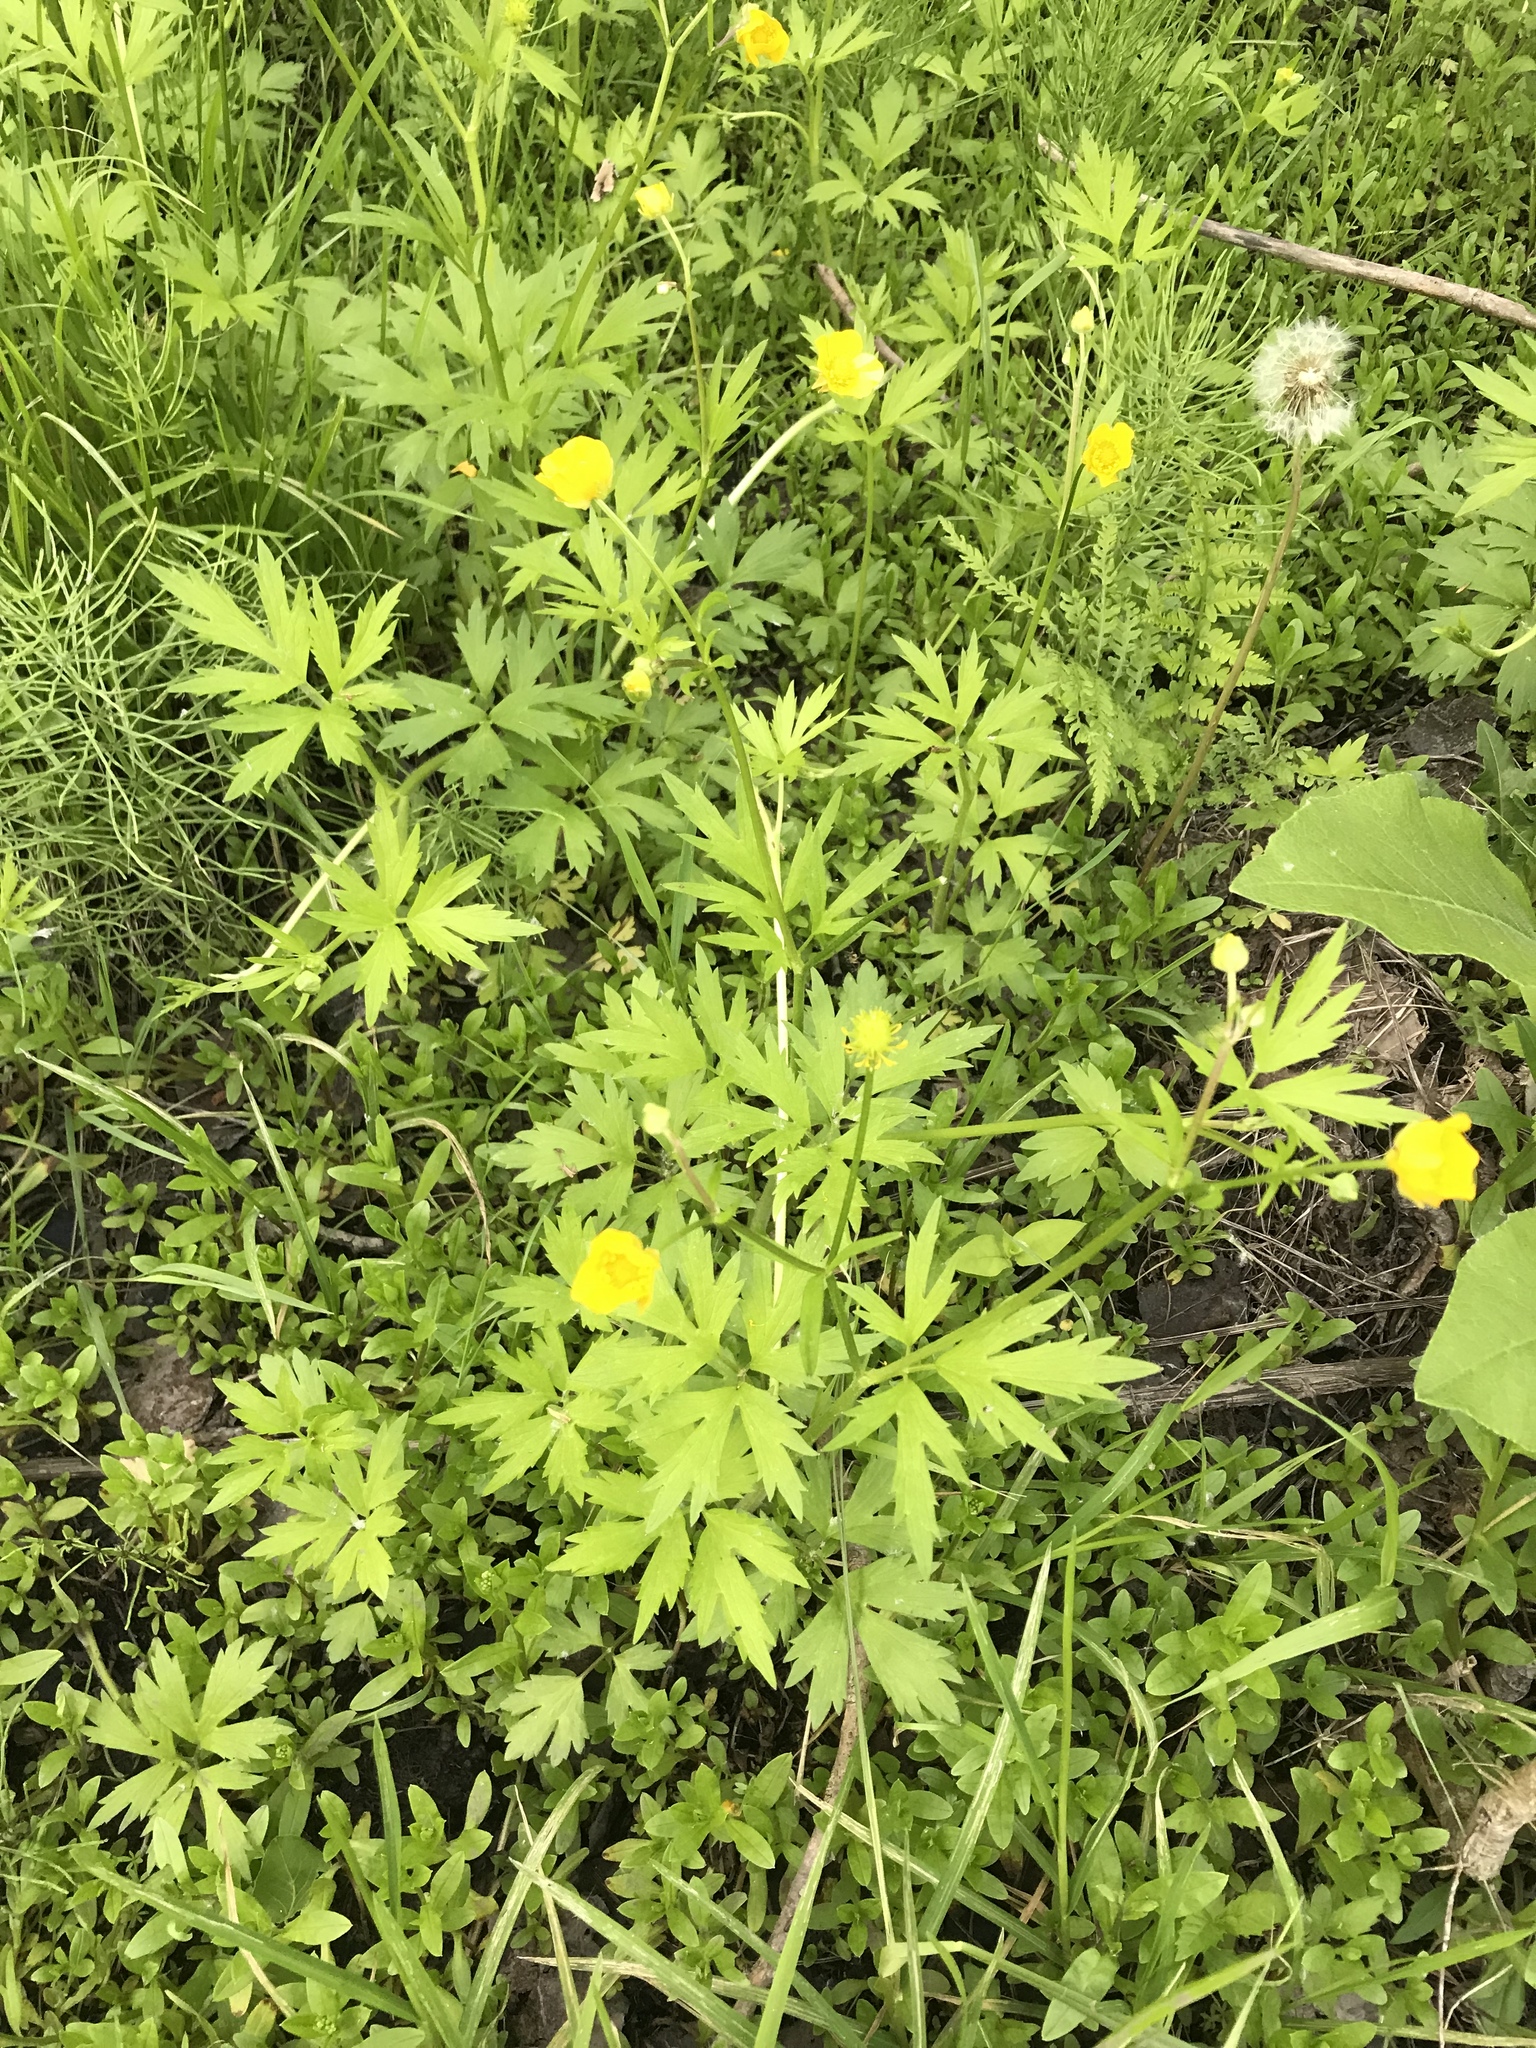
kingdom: Plantae
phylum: Tracheophyta
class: Magnoliopsida
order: Ranunculales
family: Ranunculaceae
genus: Ranunculus
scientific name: Ranunculus hispidus
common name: Bristly buttercup
